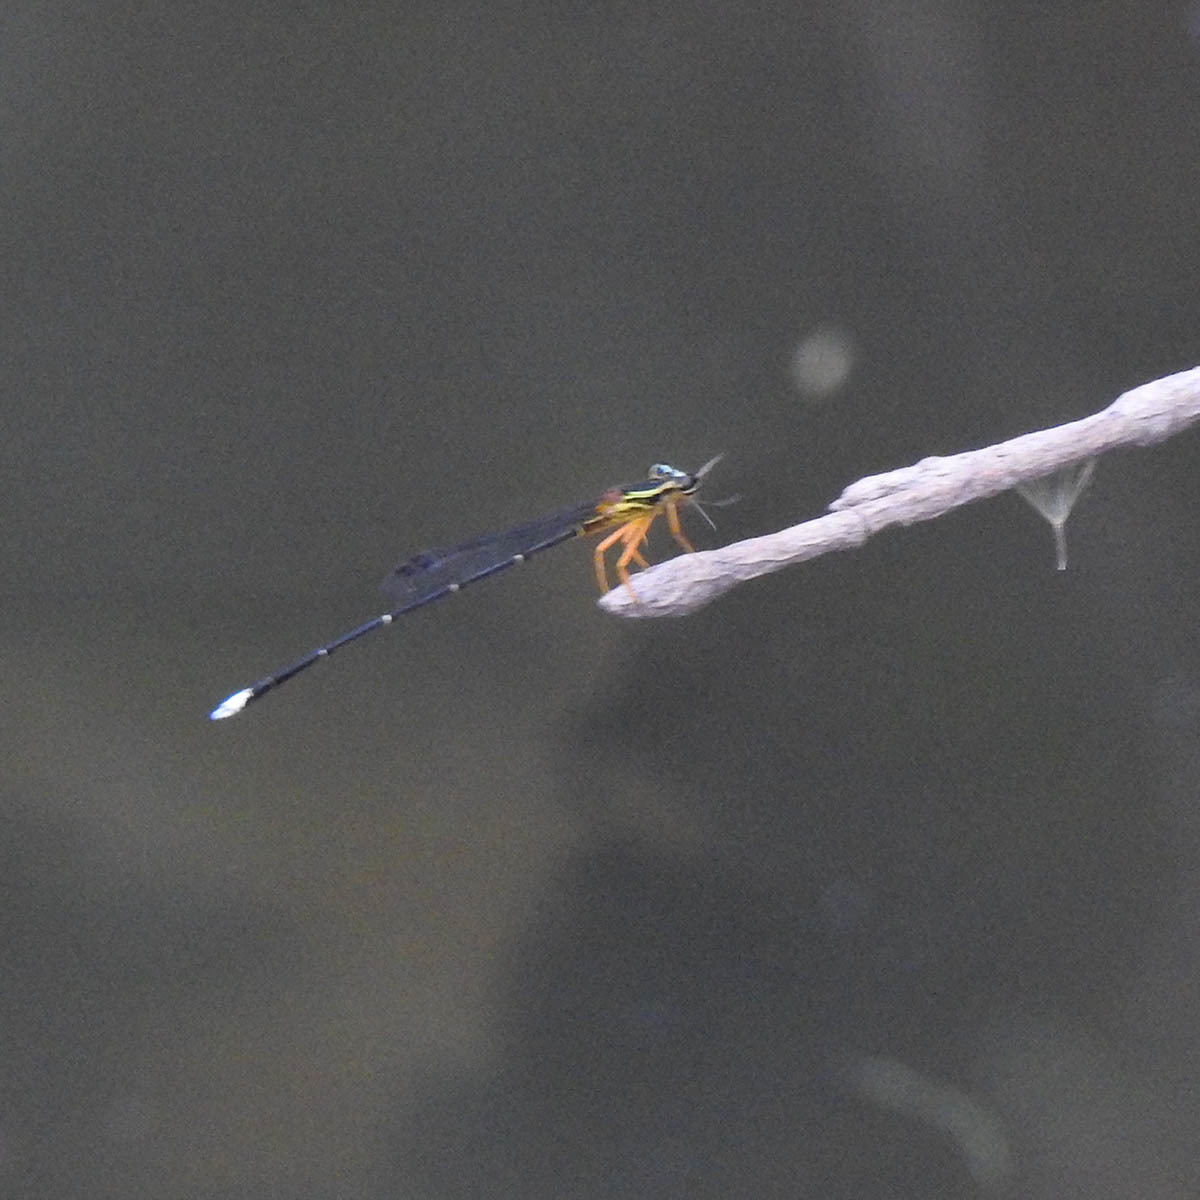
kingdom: Animalia
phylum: Arthropoda
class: Insecta
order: Odonata
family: Platycnemididae
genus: Copera
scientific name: Copera marginipes
